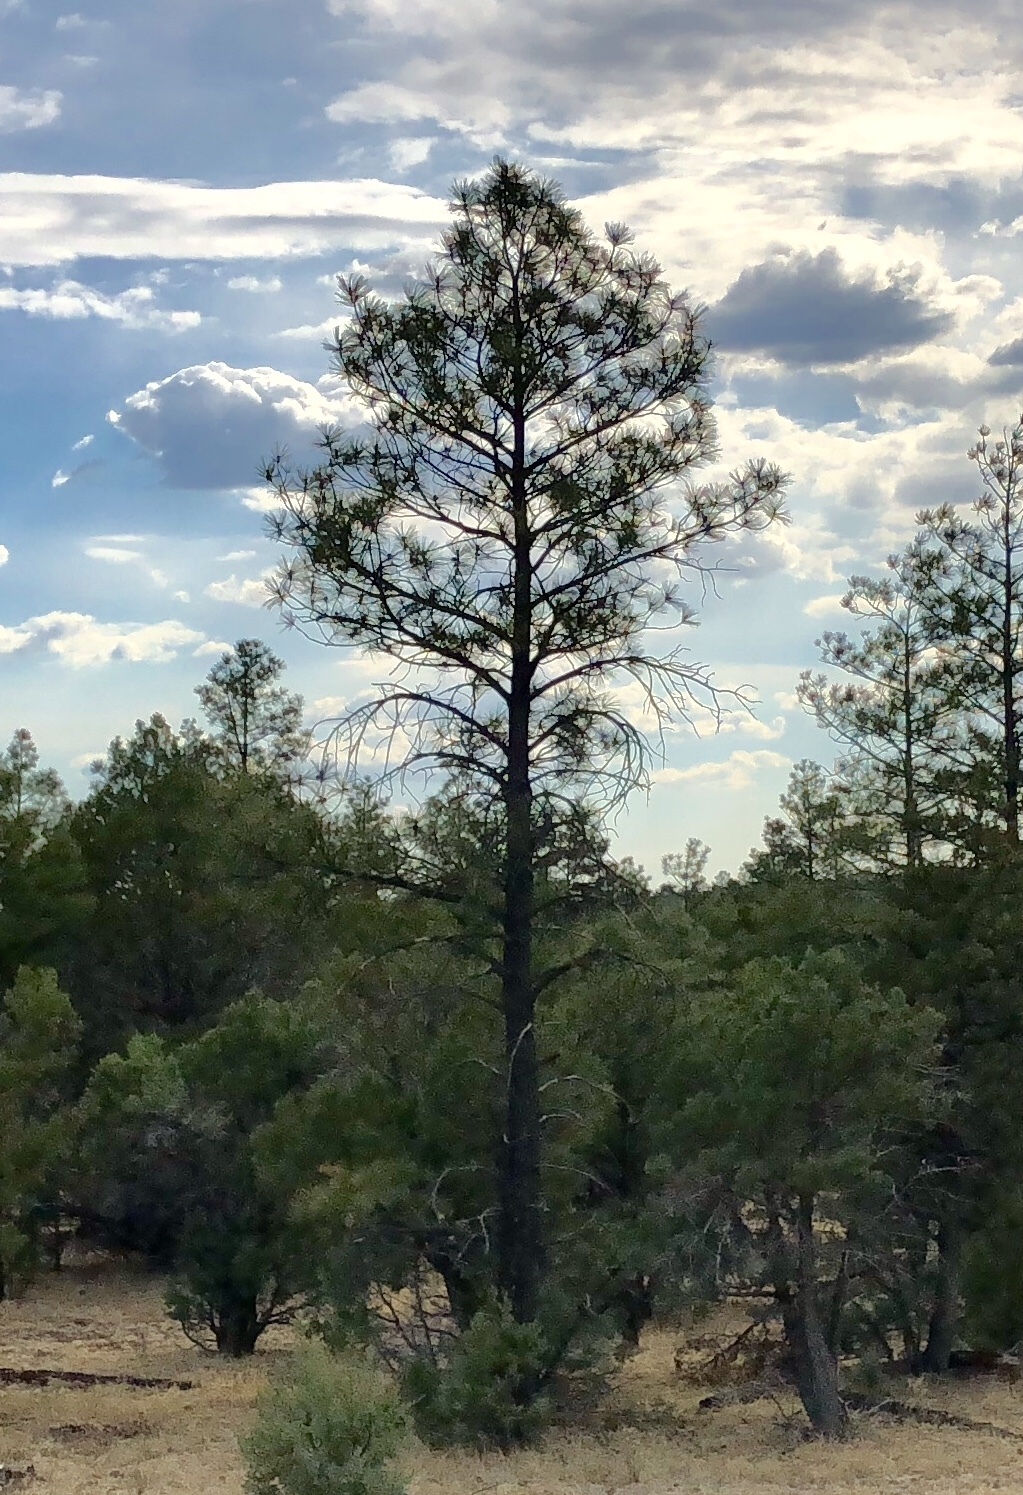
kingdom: Plantae
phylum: Tracheophyta
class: Pinopsida
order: Pinales
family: Pinaceae
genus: Pinus
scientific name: Pinus ponderosa
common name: Western yellow-pine
